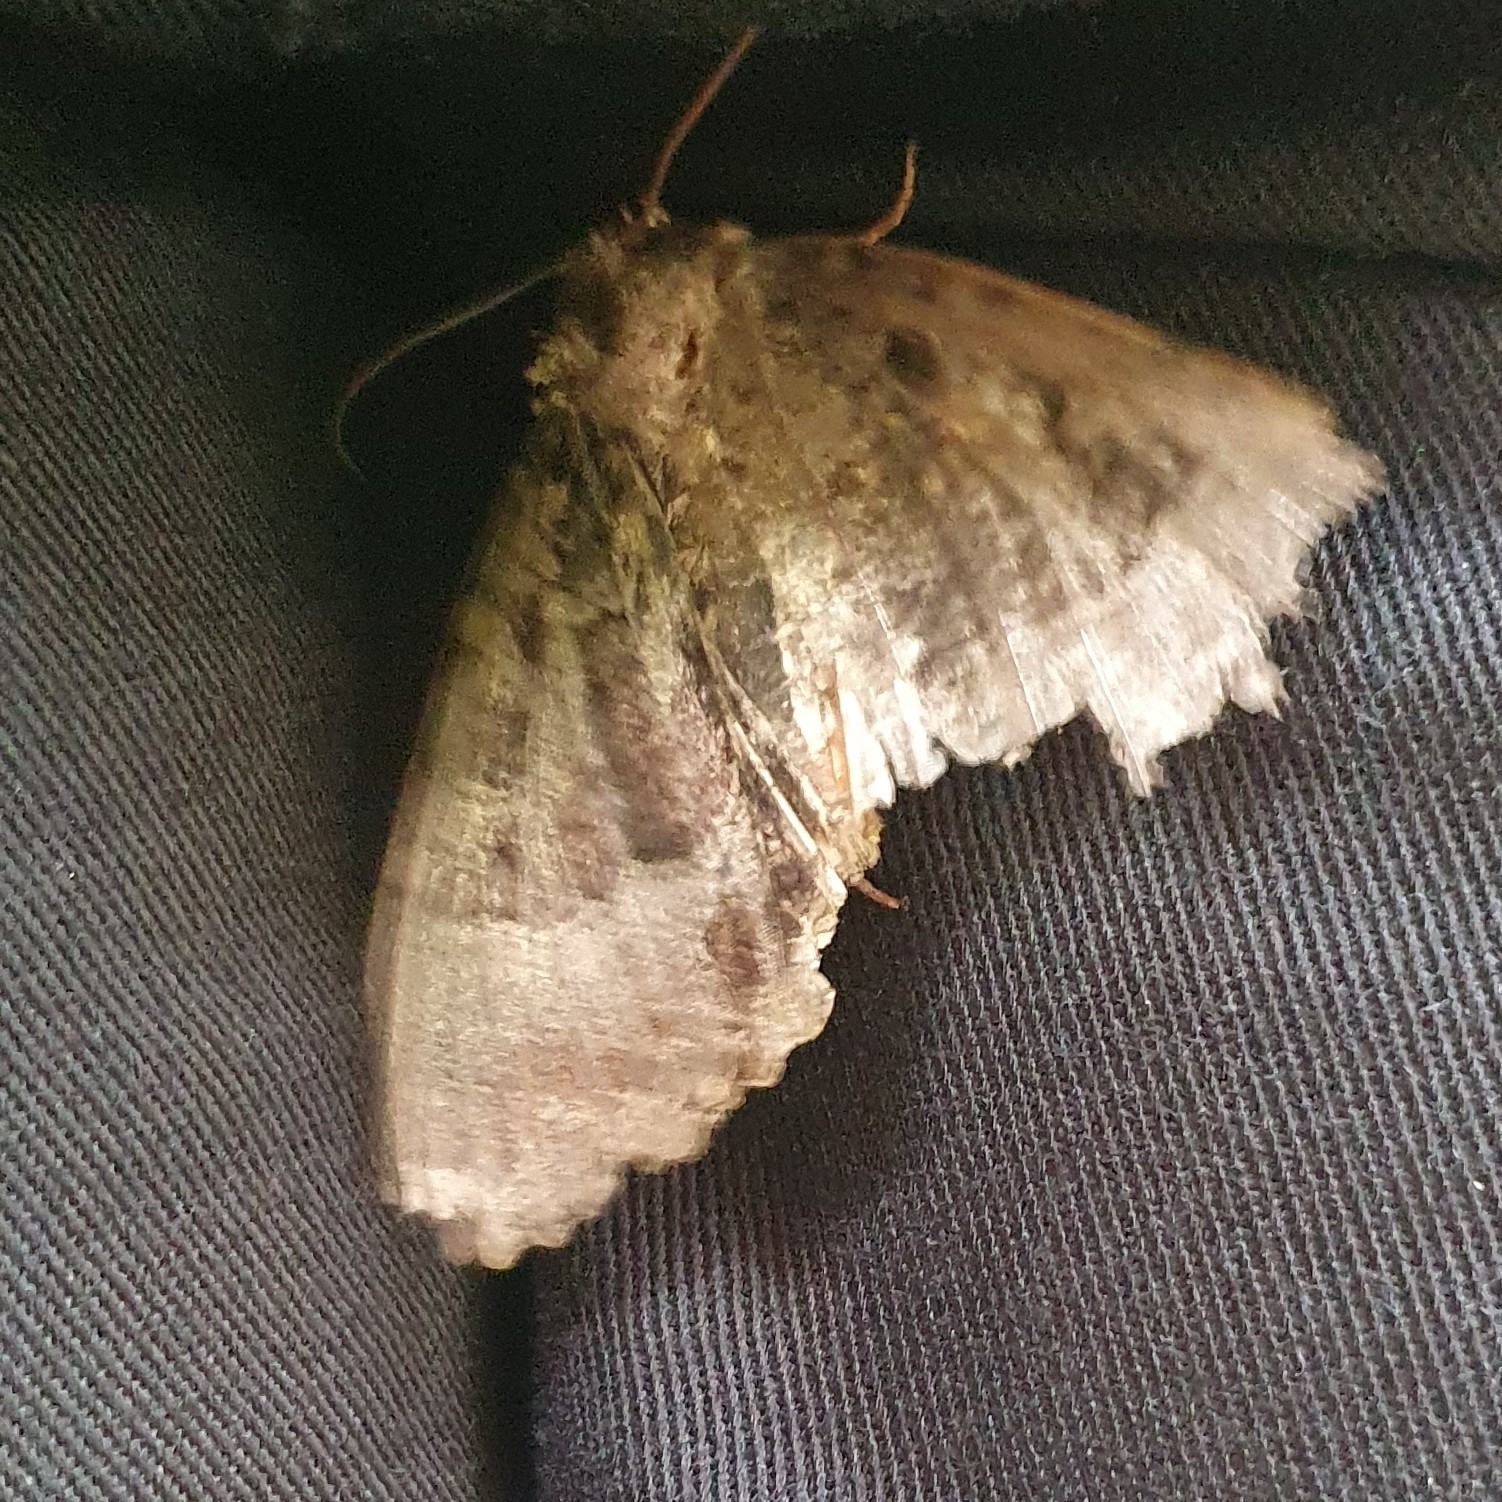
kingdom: Animalia
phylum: Arthropoda
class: Insecta
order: Lepidoptera
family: Noctuidae
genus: Mormo
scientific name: Mormo maura
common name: Old lady
